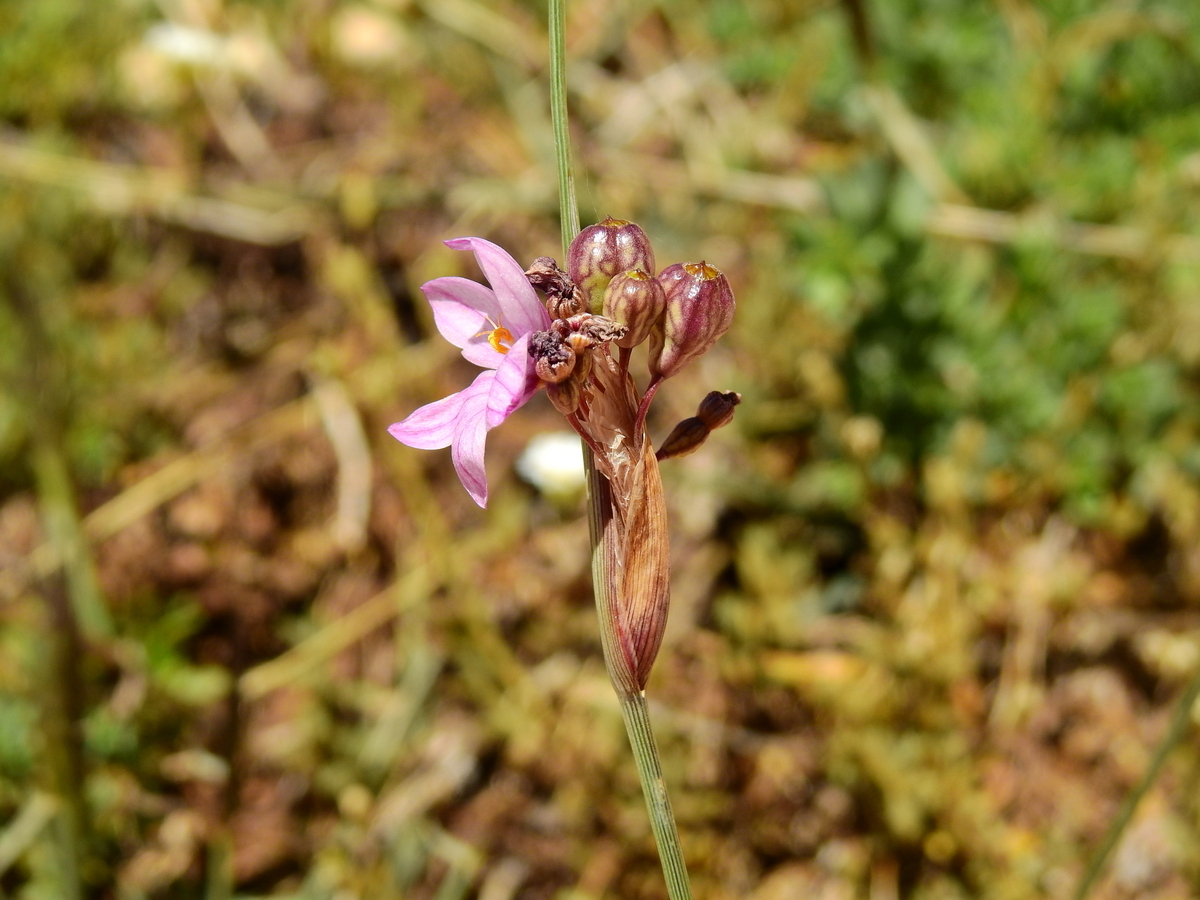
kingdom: Plantae
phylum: Tracheophyta
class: Liliopsida
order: Asparagales
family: Iridaceae
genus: Olsynium
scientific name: Olsynium junceum
